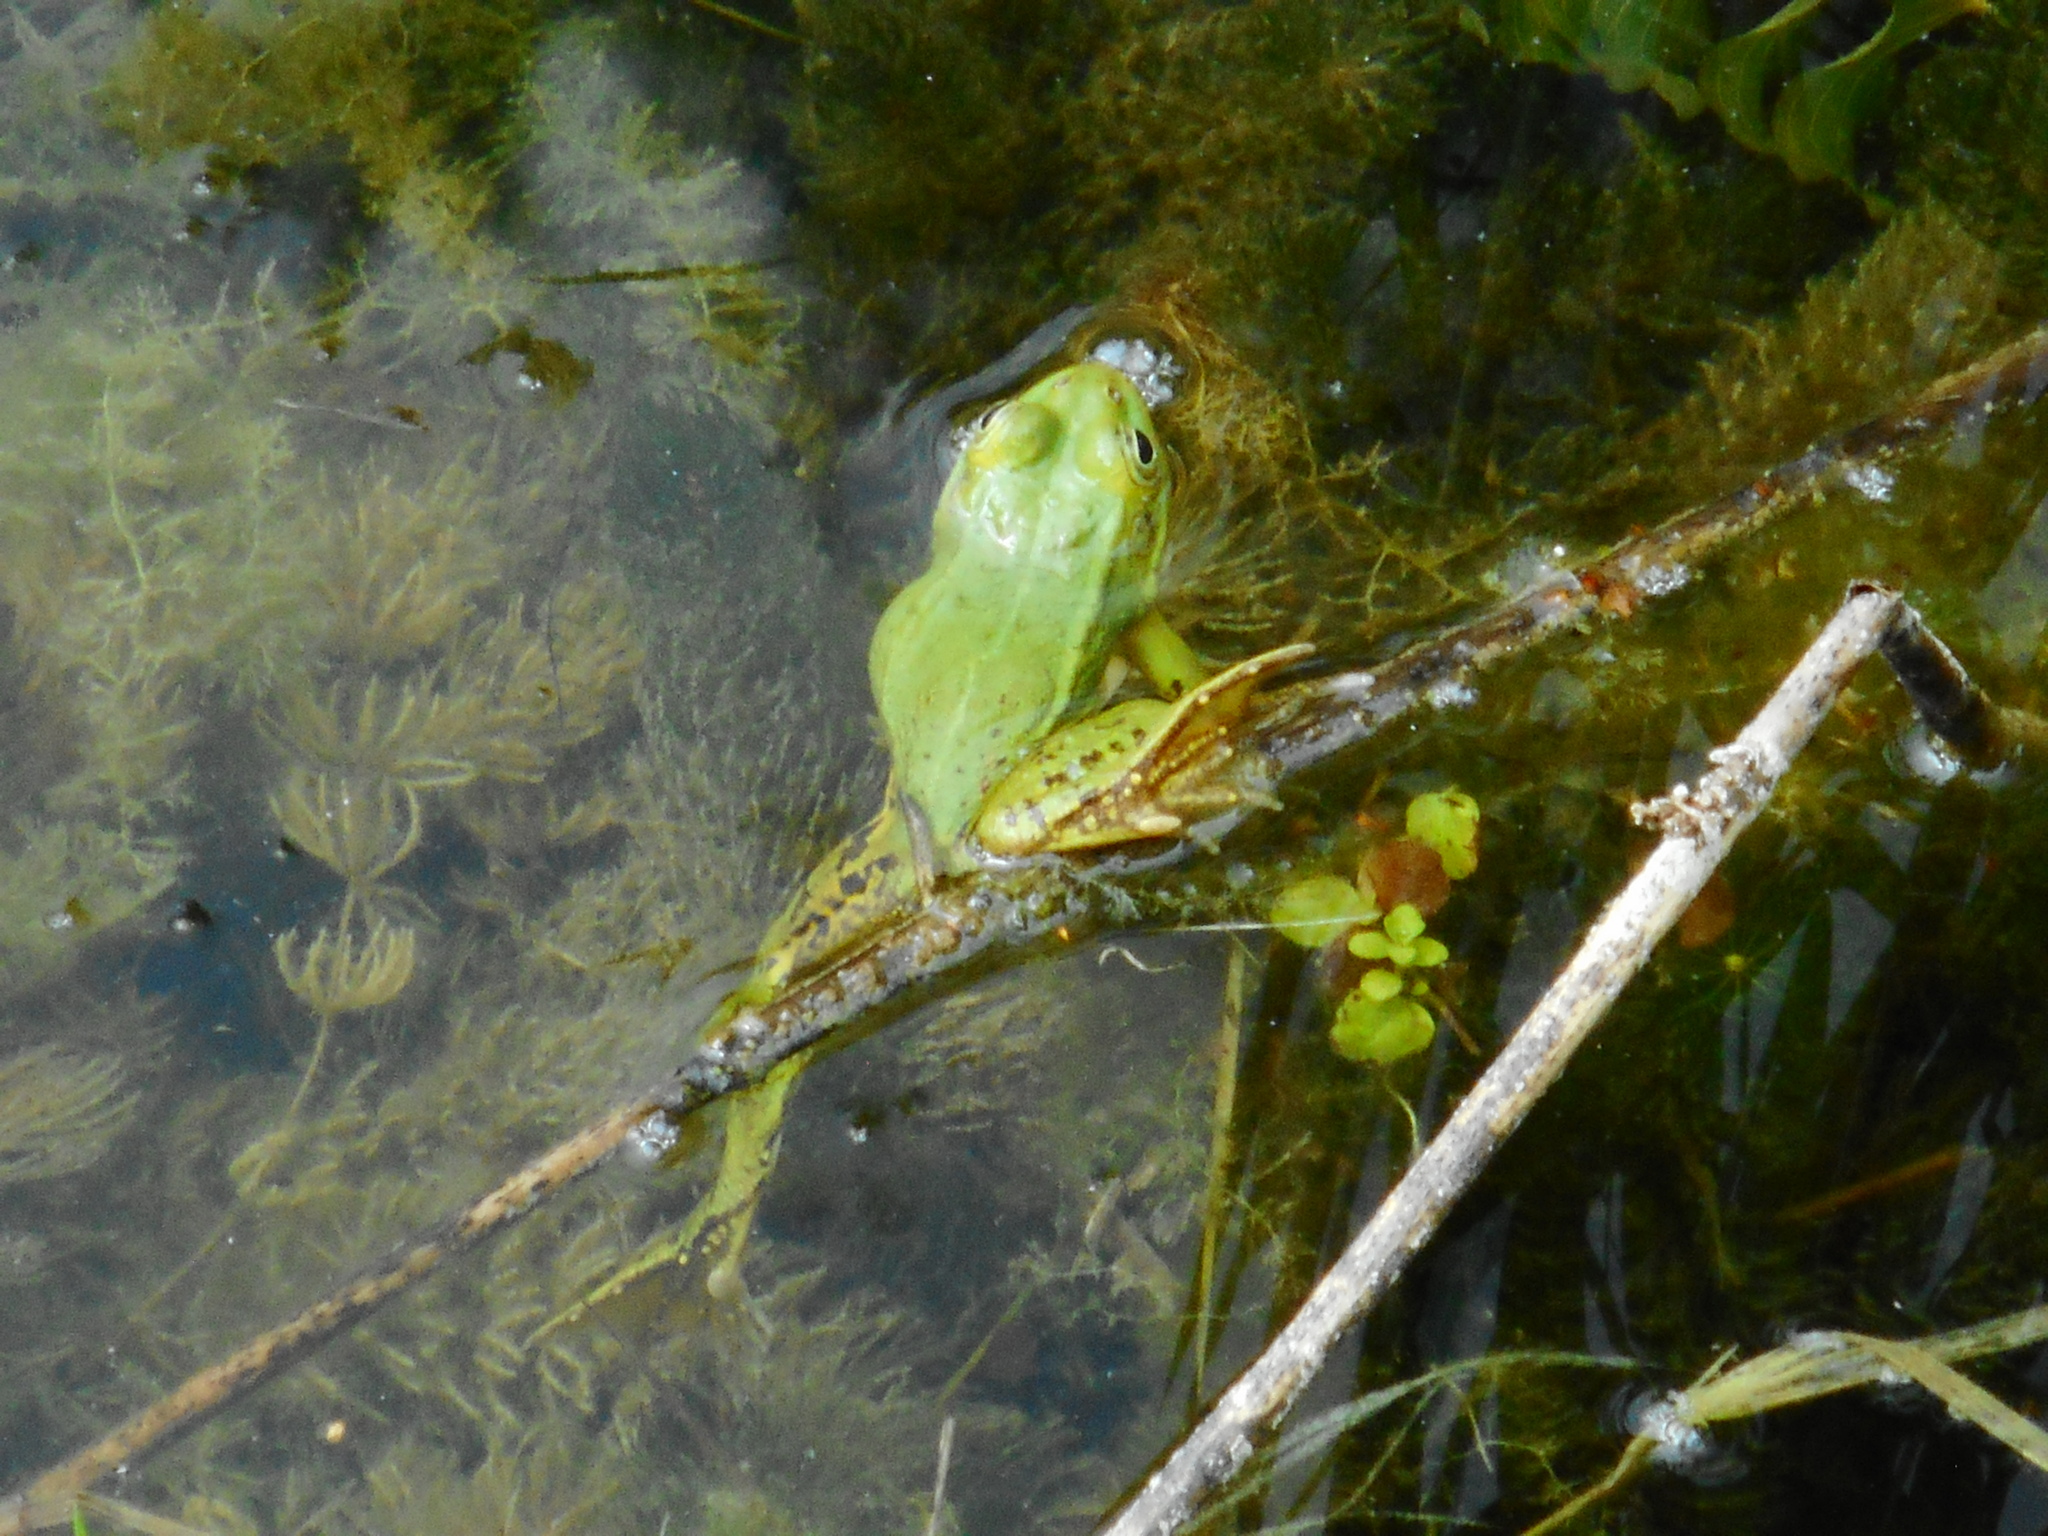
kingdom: Animalia
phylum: Chordata
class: Amphibia
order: Anura
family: Ranidae
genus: Pelophylax
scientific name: Pelophylax lessonae
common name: Pool frog
